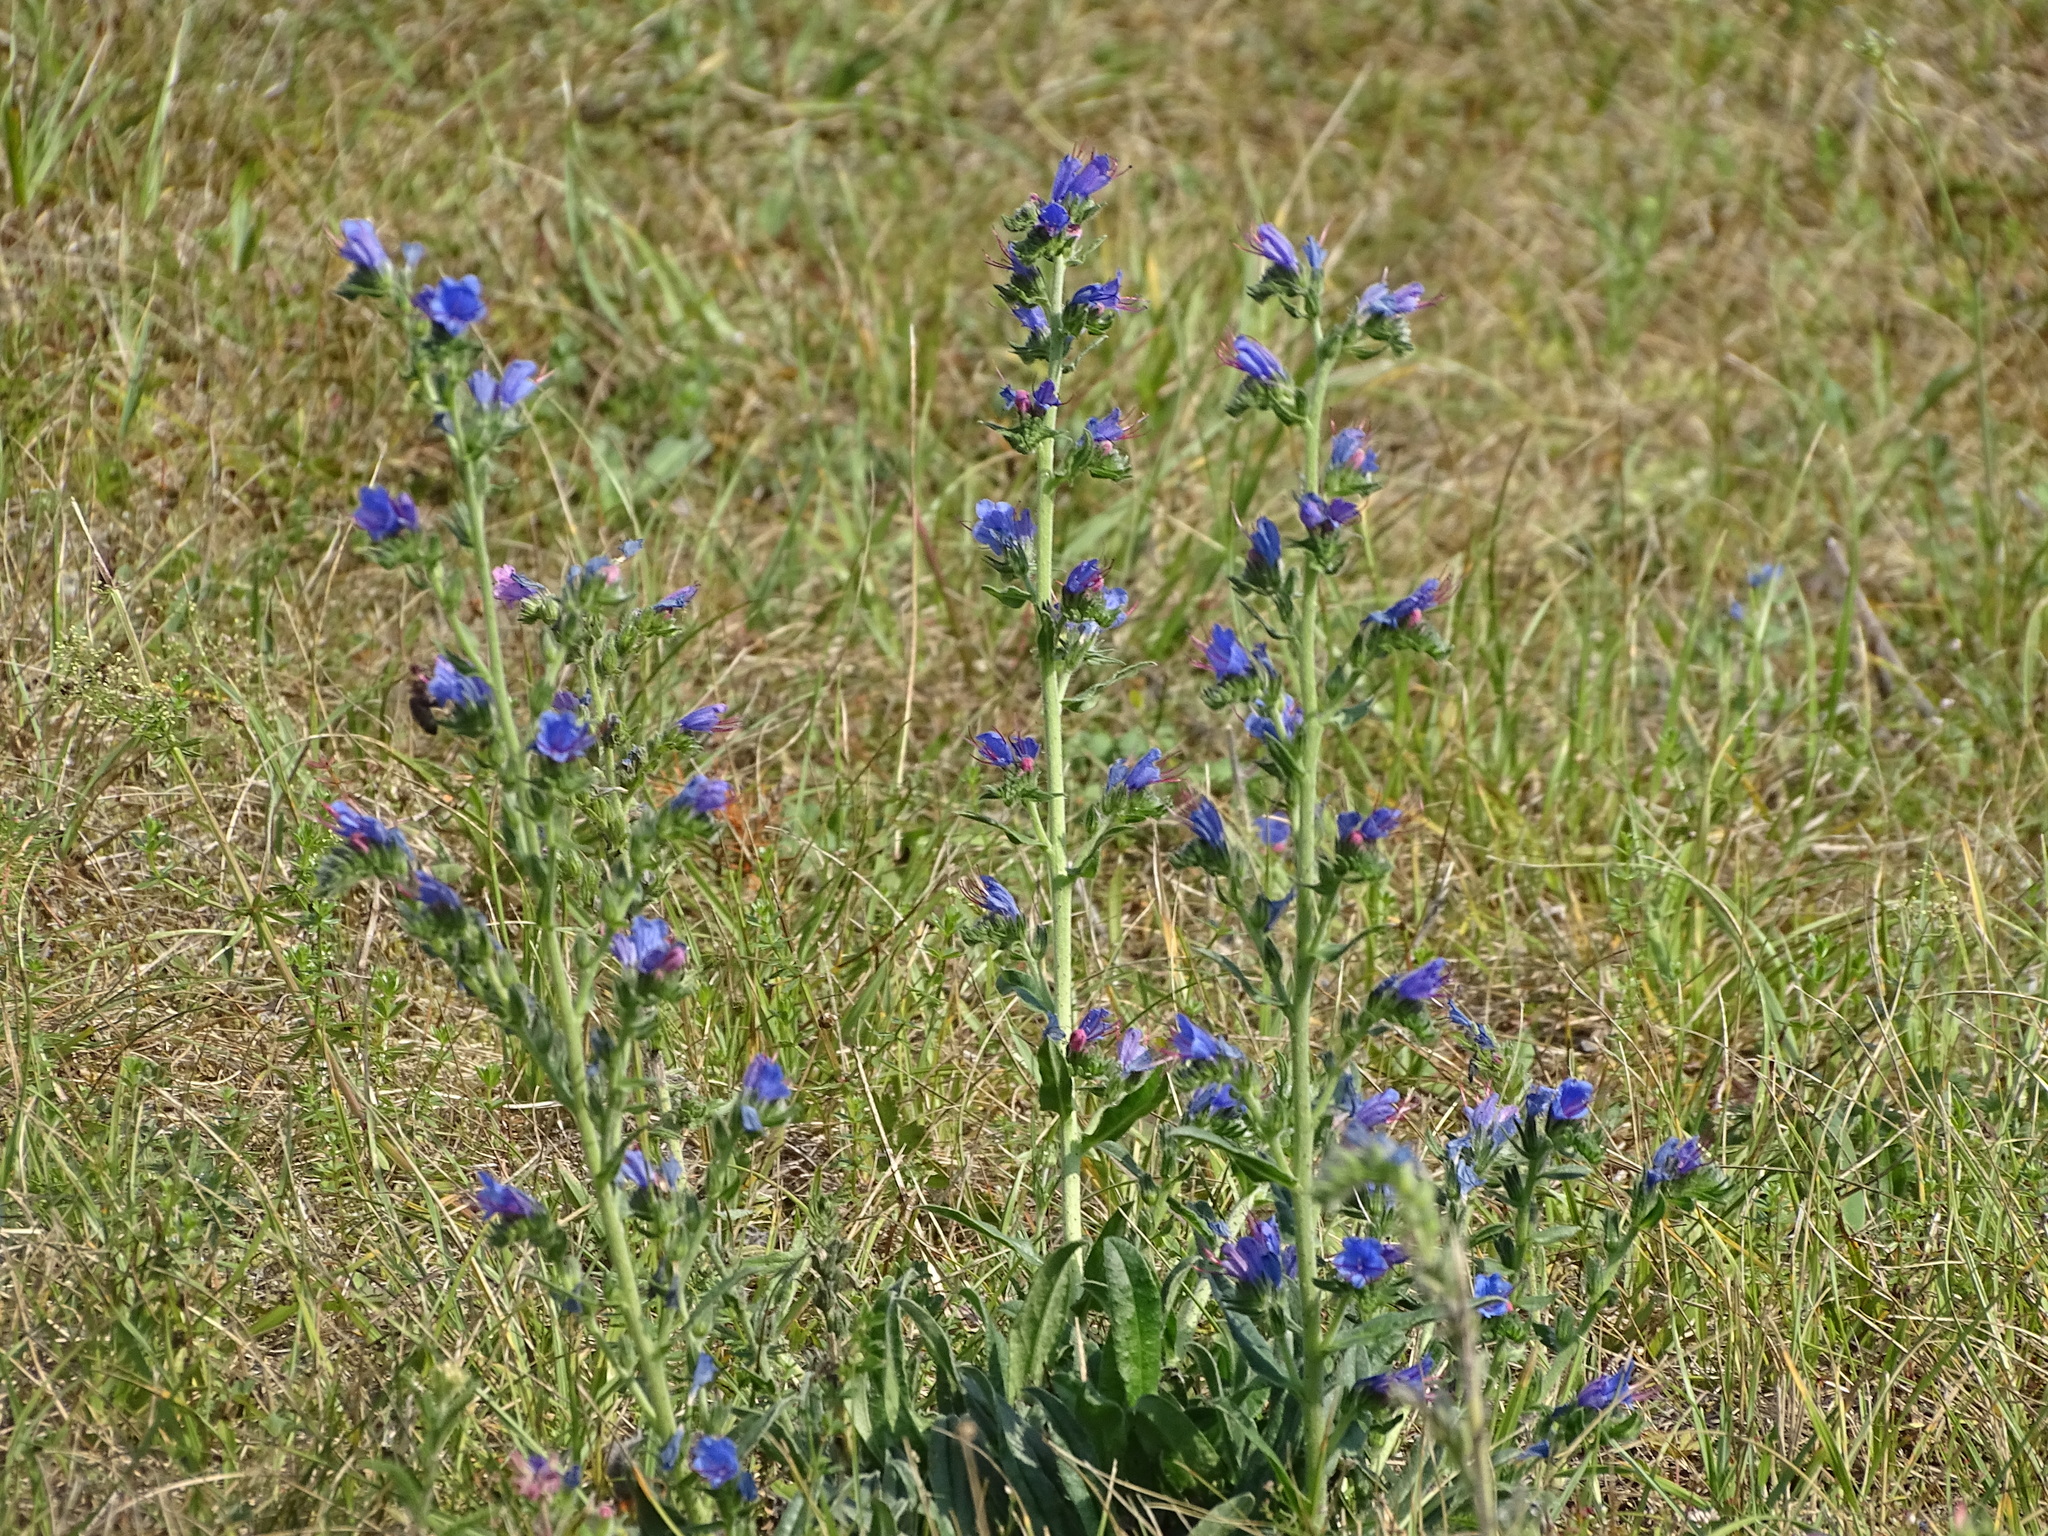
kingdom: Plantae
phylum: Tracheophyta
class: Magnoliopsida
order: Boraginales
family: Boraginaceae
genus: Echium
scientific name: Echium vulgare
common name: Common viper's bugloss
